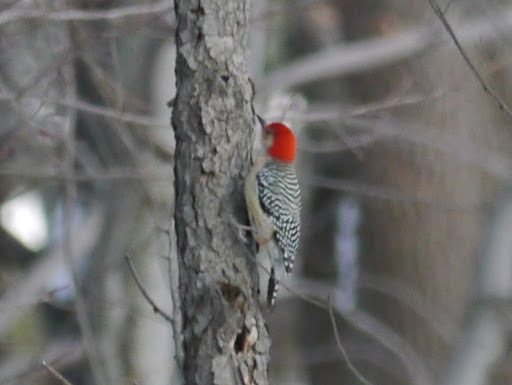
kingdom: Animalia
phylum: Chordata
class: Aves
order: Piciformes
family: Picidae
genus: Melanerpes
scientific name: Melanerpes carolinus
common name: Red-bellied woodpecker
